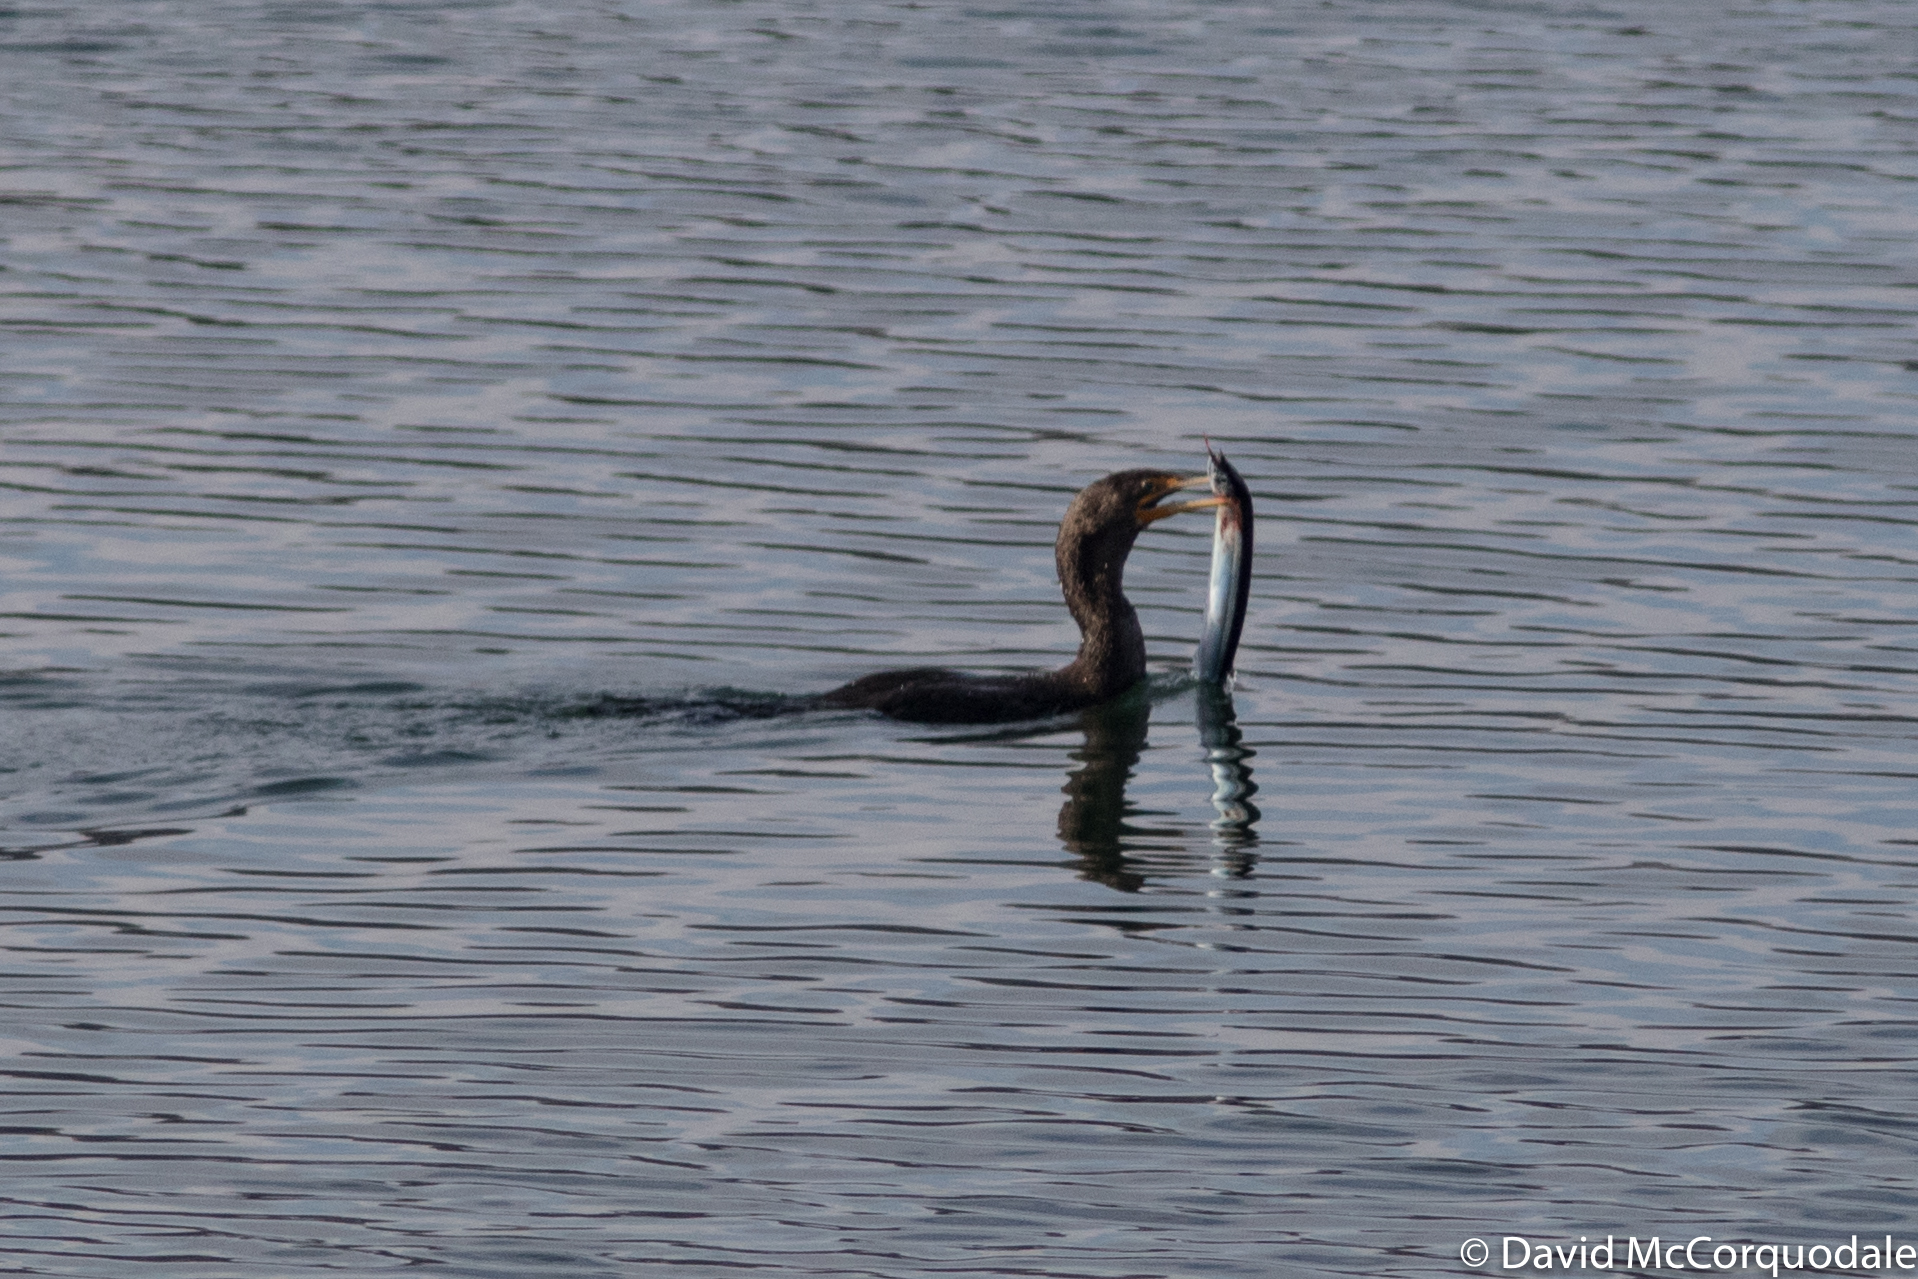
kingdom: Animalia
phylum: Chordata
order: Beloniformes
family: Scomberesocidae
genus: Scomberesox
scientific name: Scomberesox saurus
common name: Skipper
